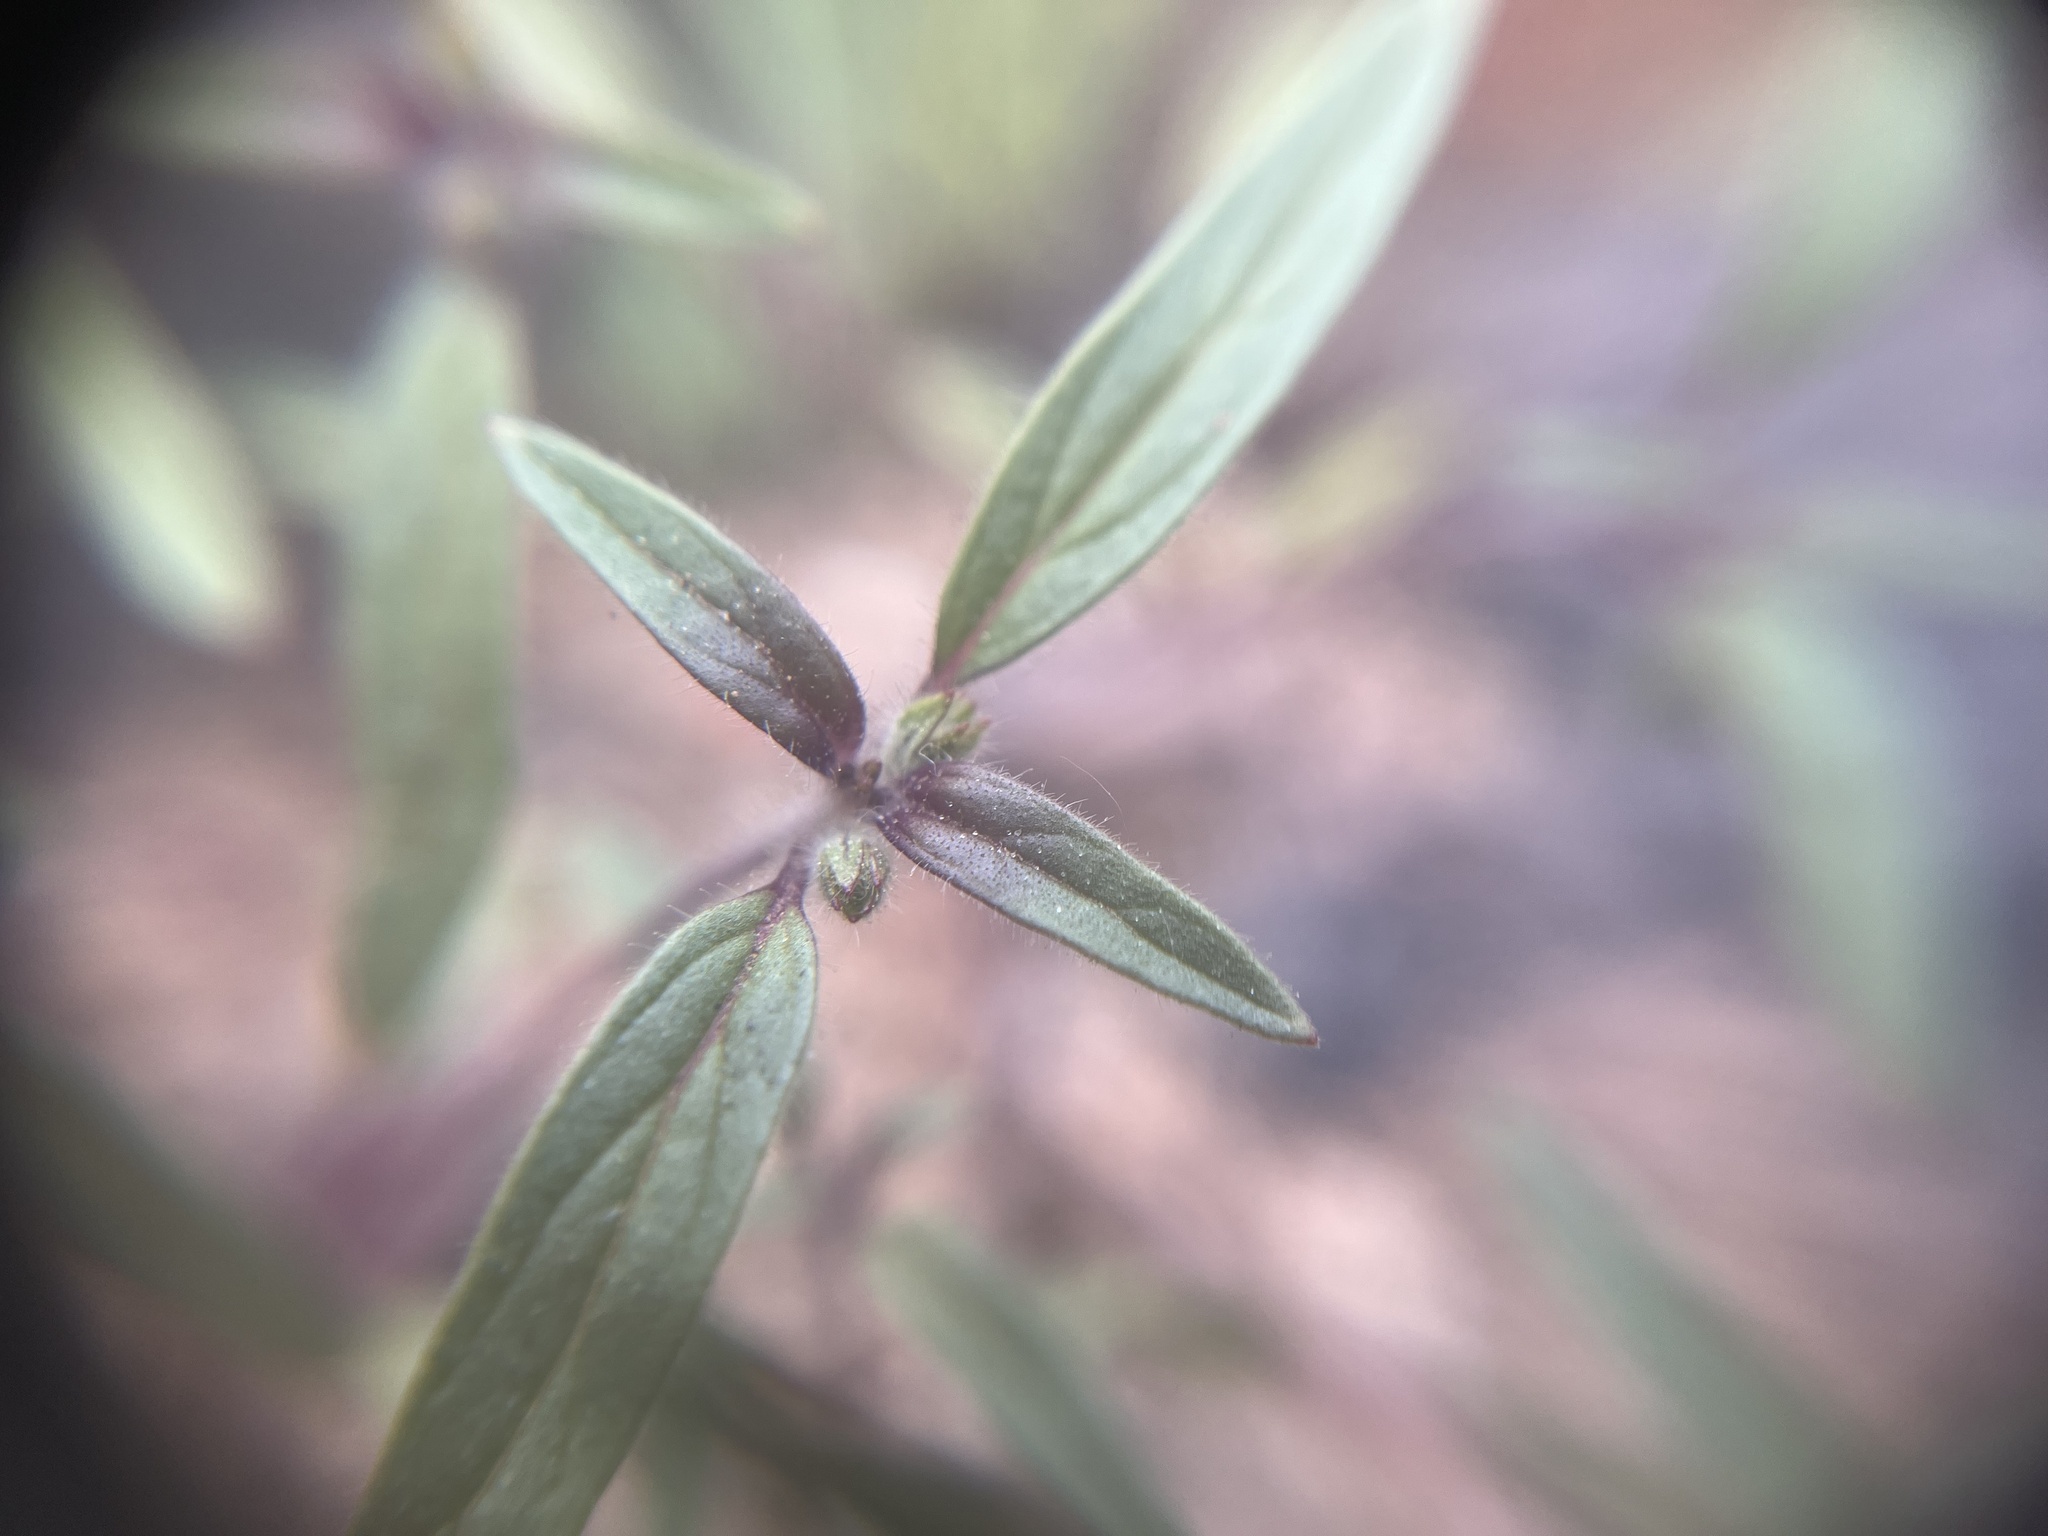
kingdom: Plantae
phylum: Tracheophyta
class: Magnoliopsida
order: Lamiales
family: Lamiaceae
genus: Trichostema
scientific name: Trichostema simulatum
